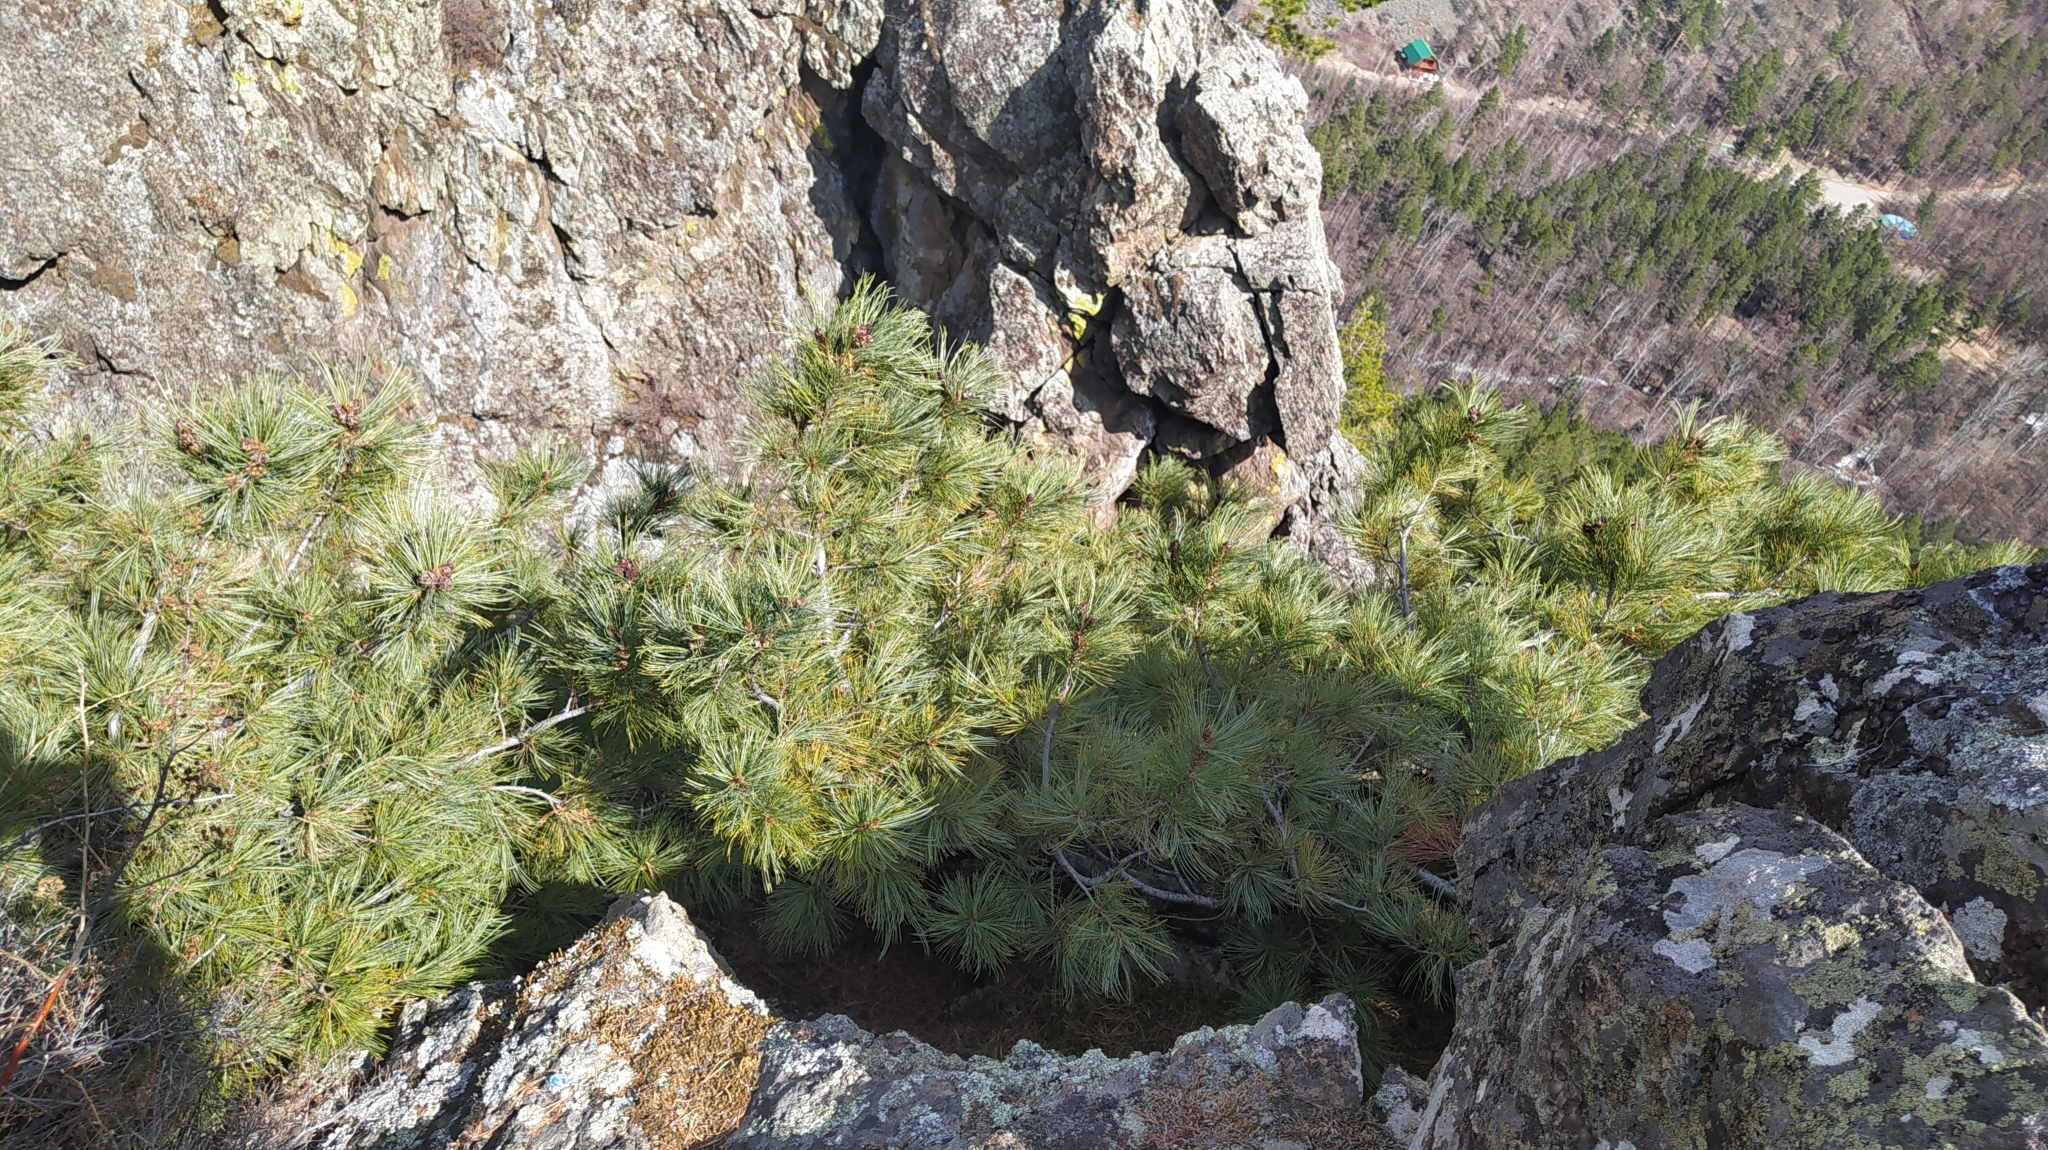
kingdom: Plantae
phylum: Tracheophyta
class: Pinopsida
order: Pinales
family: Pinaceae
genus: Pinus
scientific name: Pinus pumila
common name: Dwarf siberian pine
